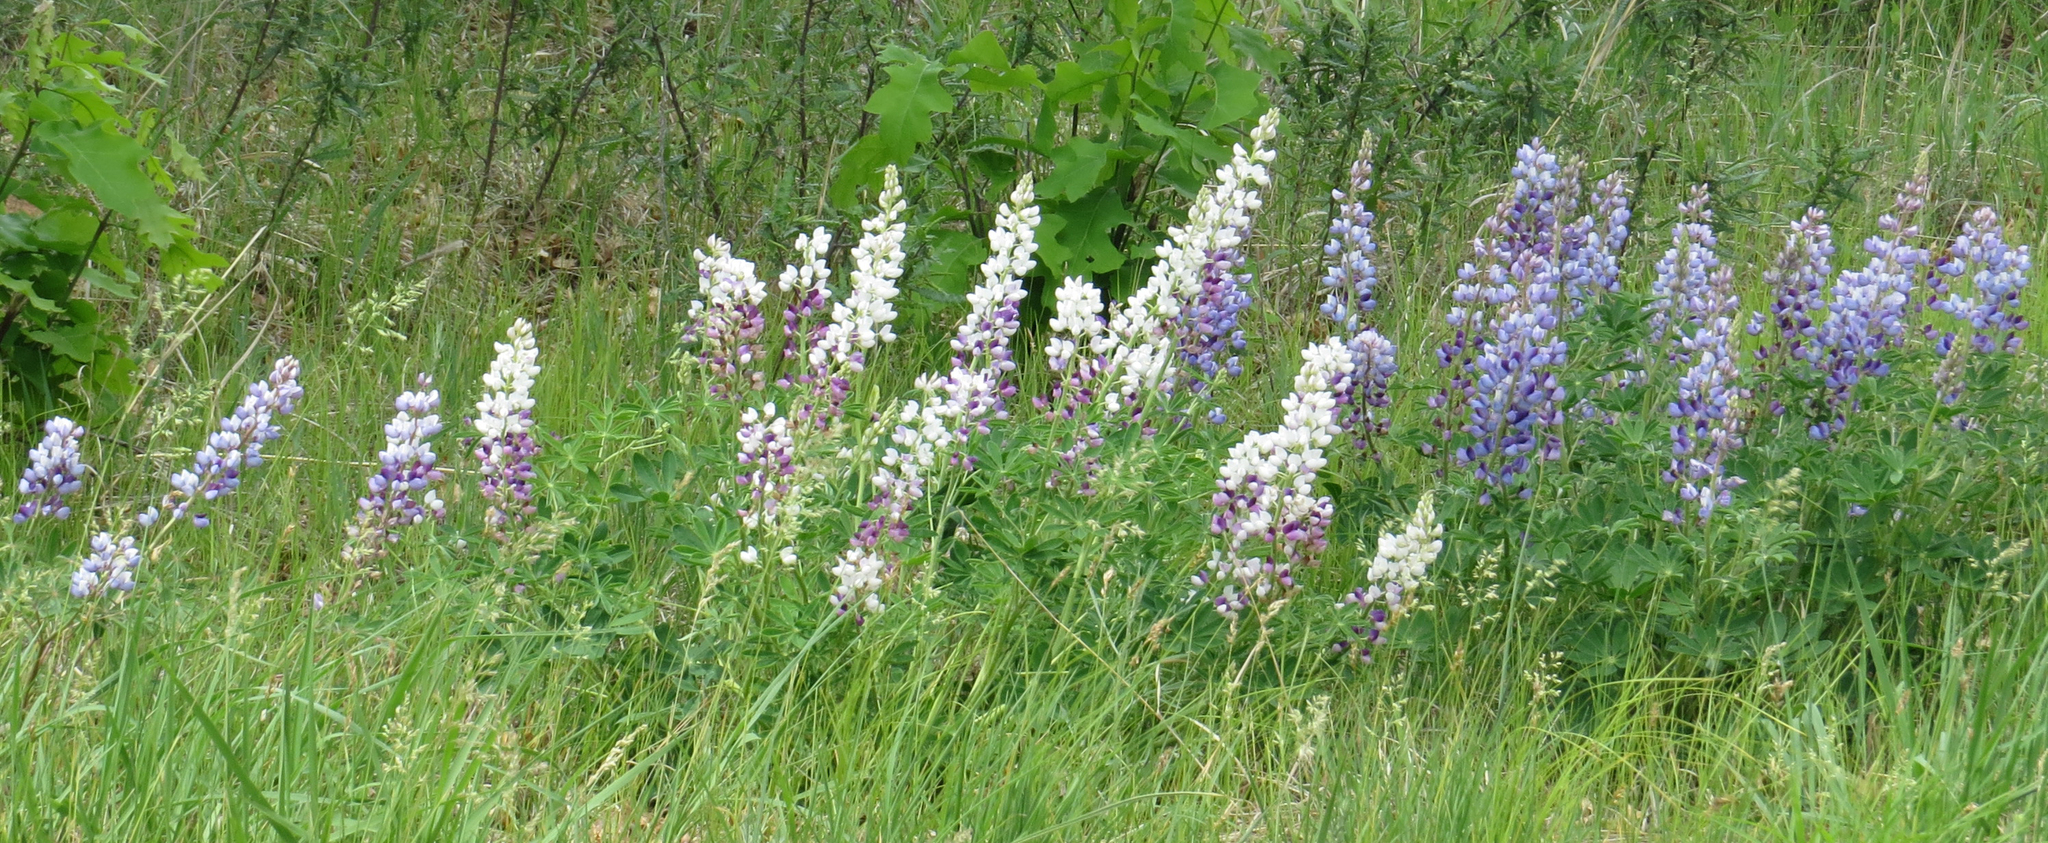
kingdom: Plantae
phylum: Tracheophyta
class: Magnoliopsida
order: Fabales
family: Fabaceae
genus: Lupinus
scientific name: Lupinus perennis
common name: Sundial lupine
